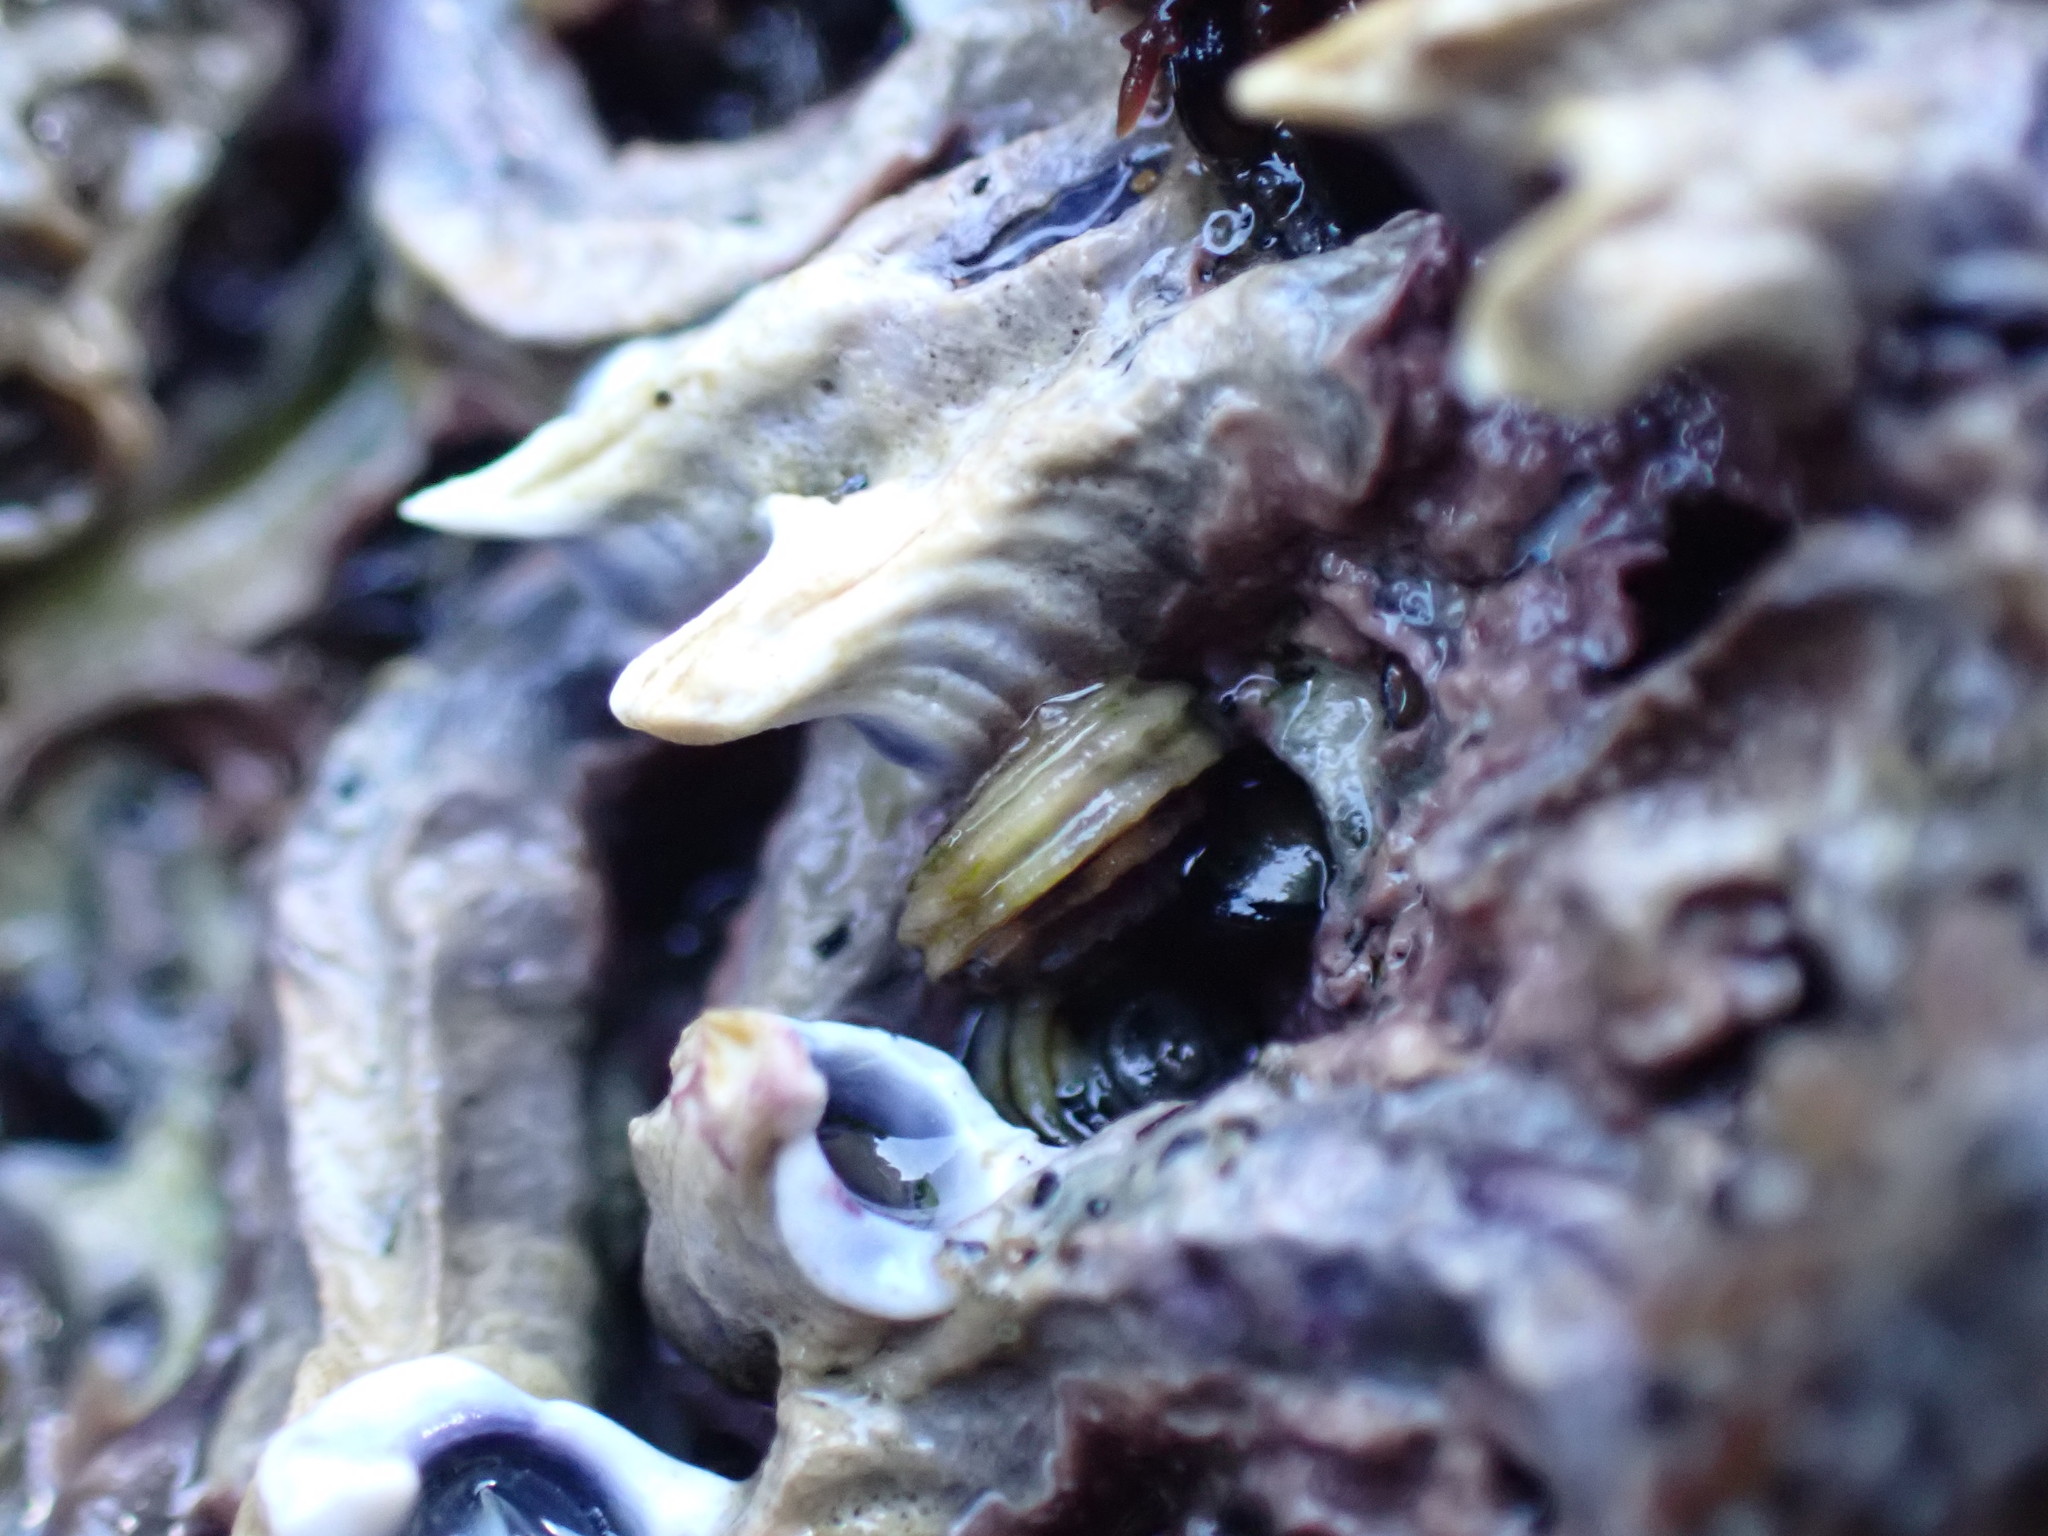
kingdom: Animalia
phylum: Mollusca
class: Gastropoda
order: Littorinimorpha
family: Littorinidae
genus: Risellopsis
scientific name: Risellopsis varia
